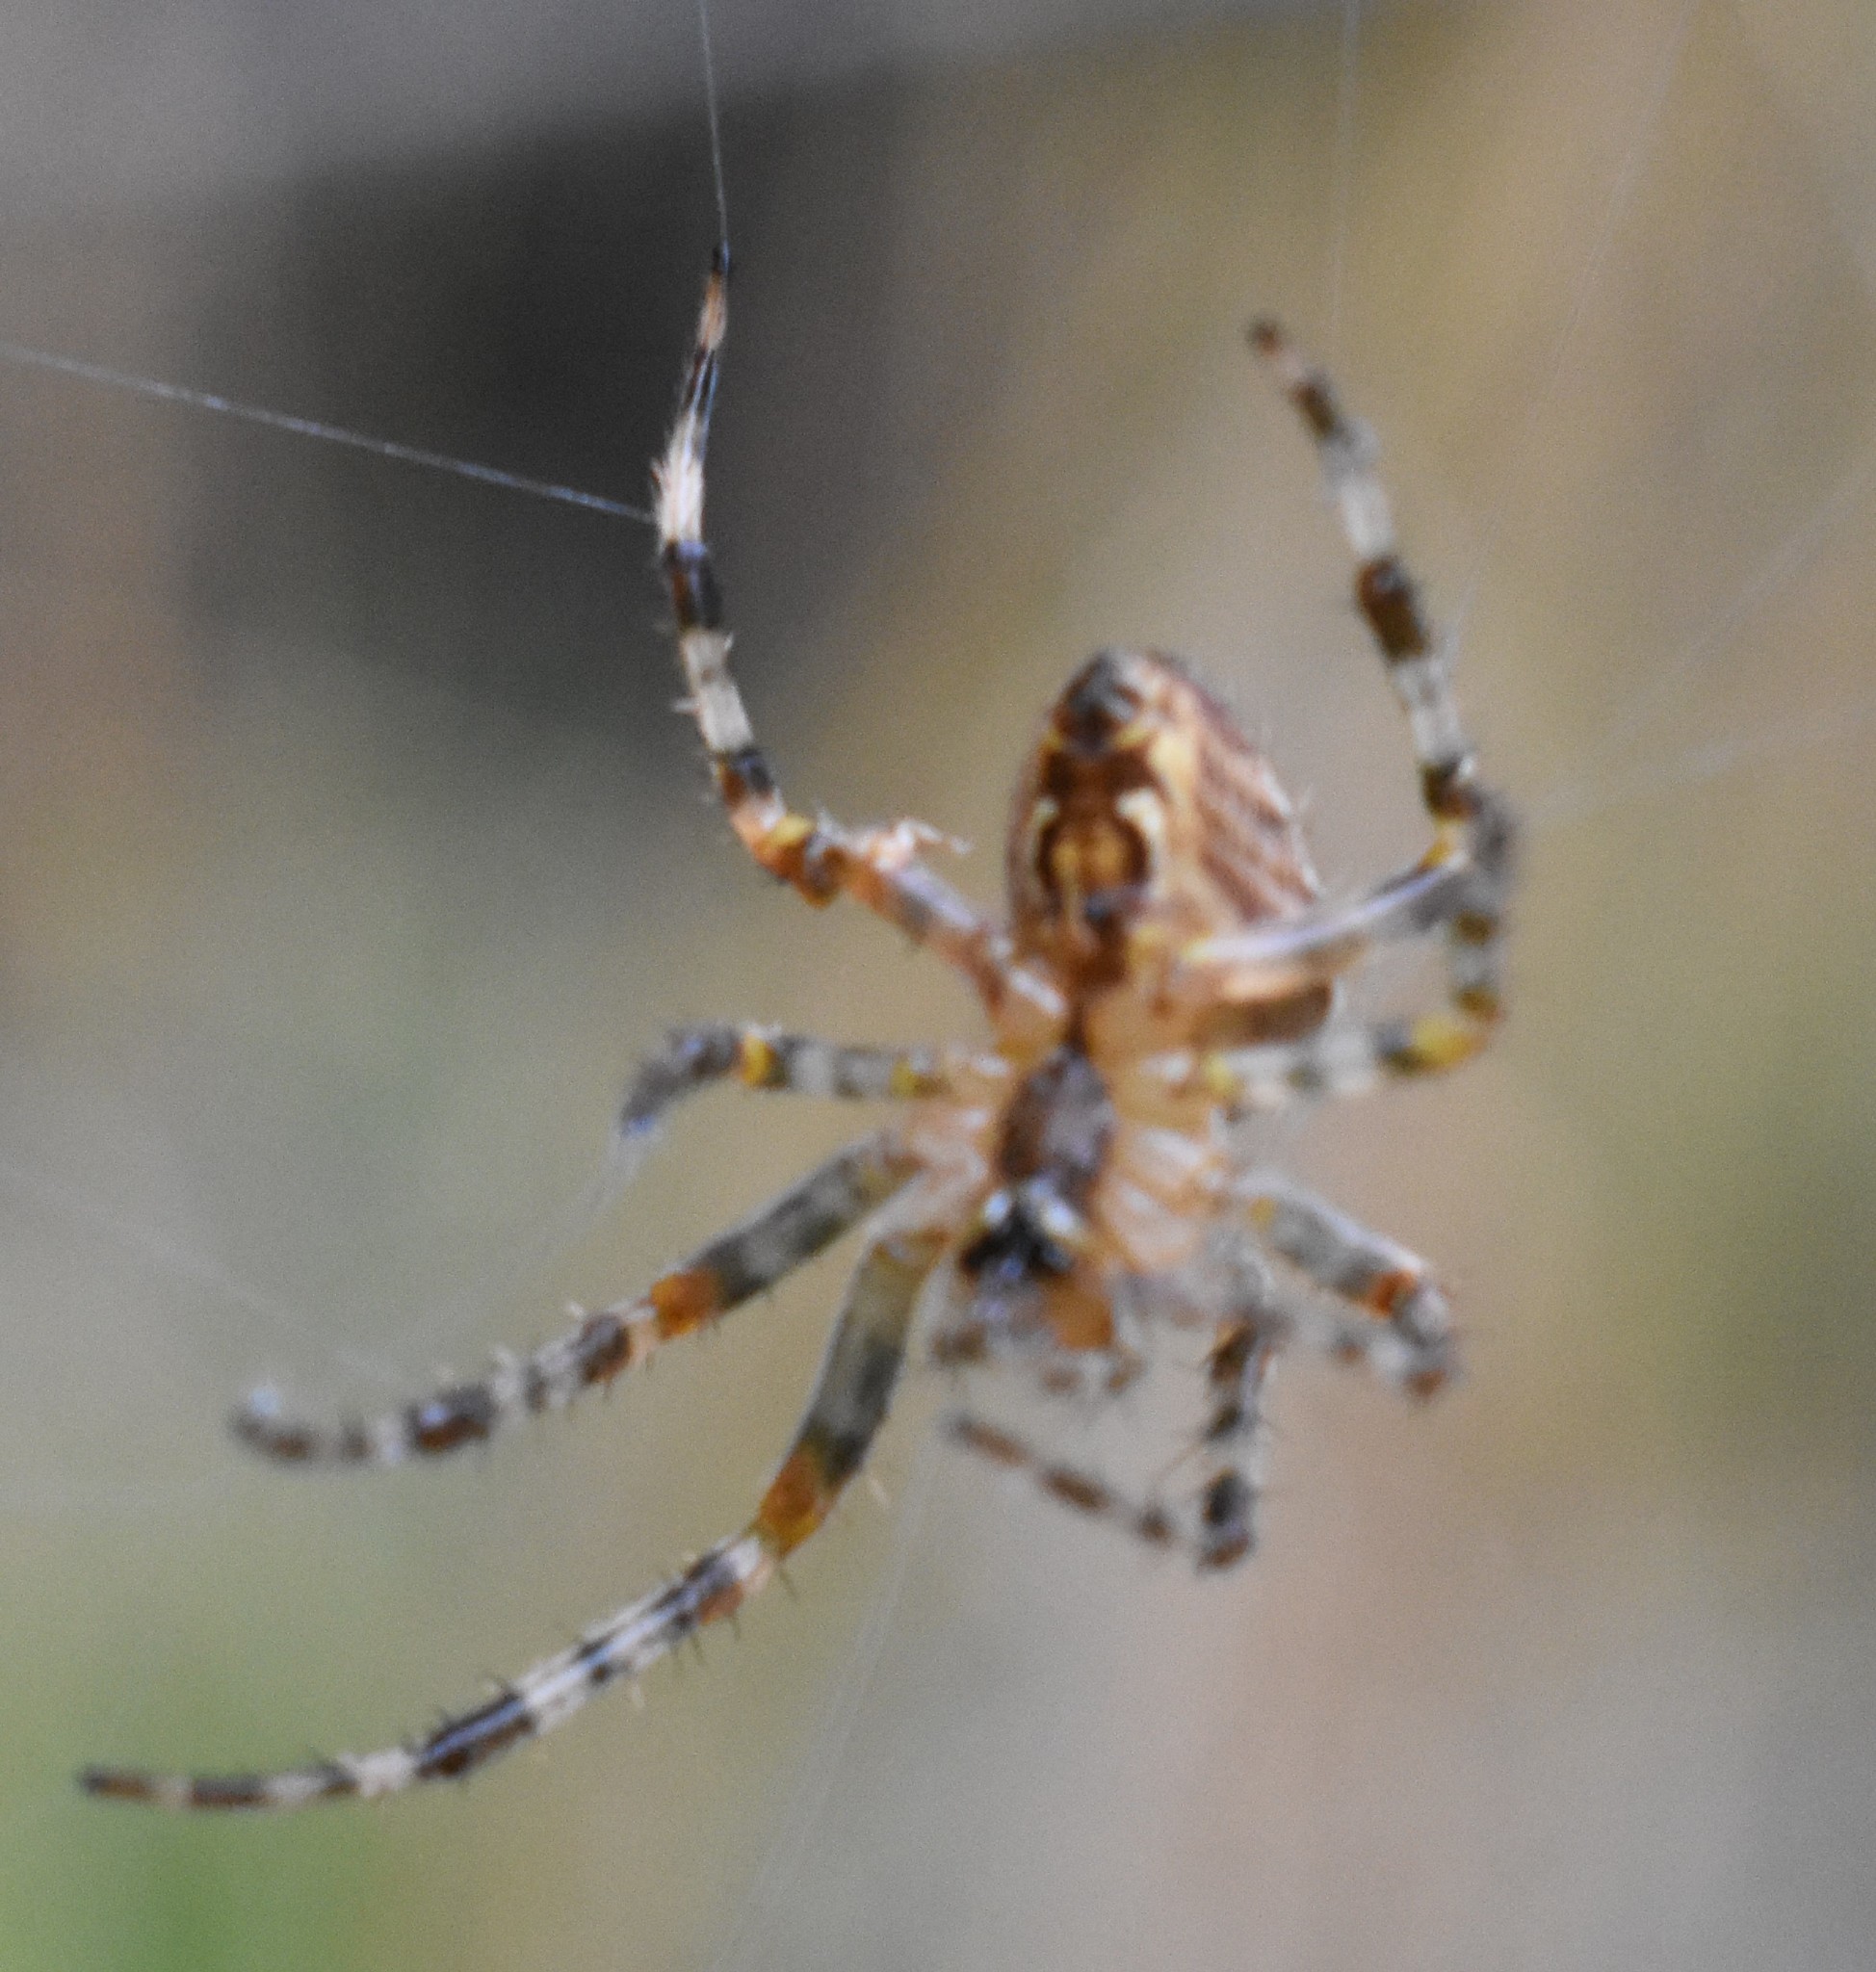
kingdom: Animalia
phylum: Arthropoda
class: Arachnida
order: Araneae
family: Araneidae
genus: Araneus
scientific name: Araneus diadematus
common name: Cross orbweaver
